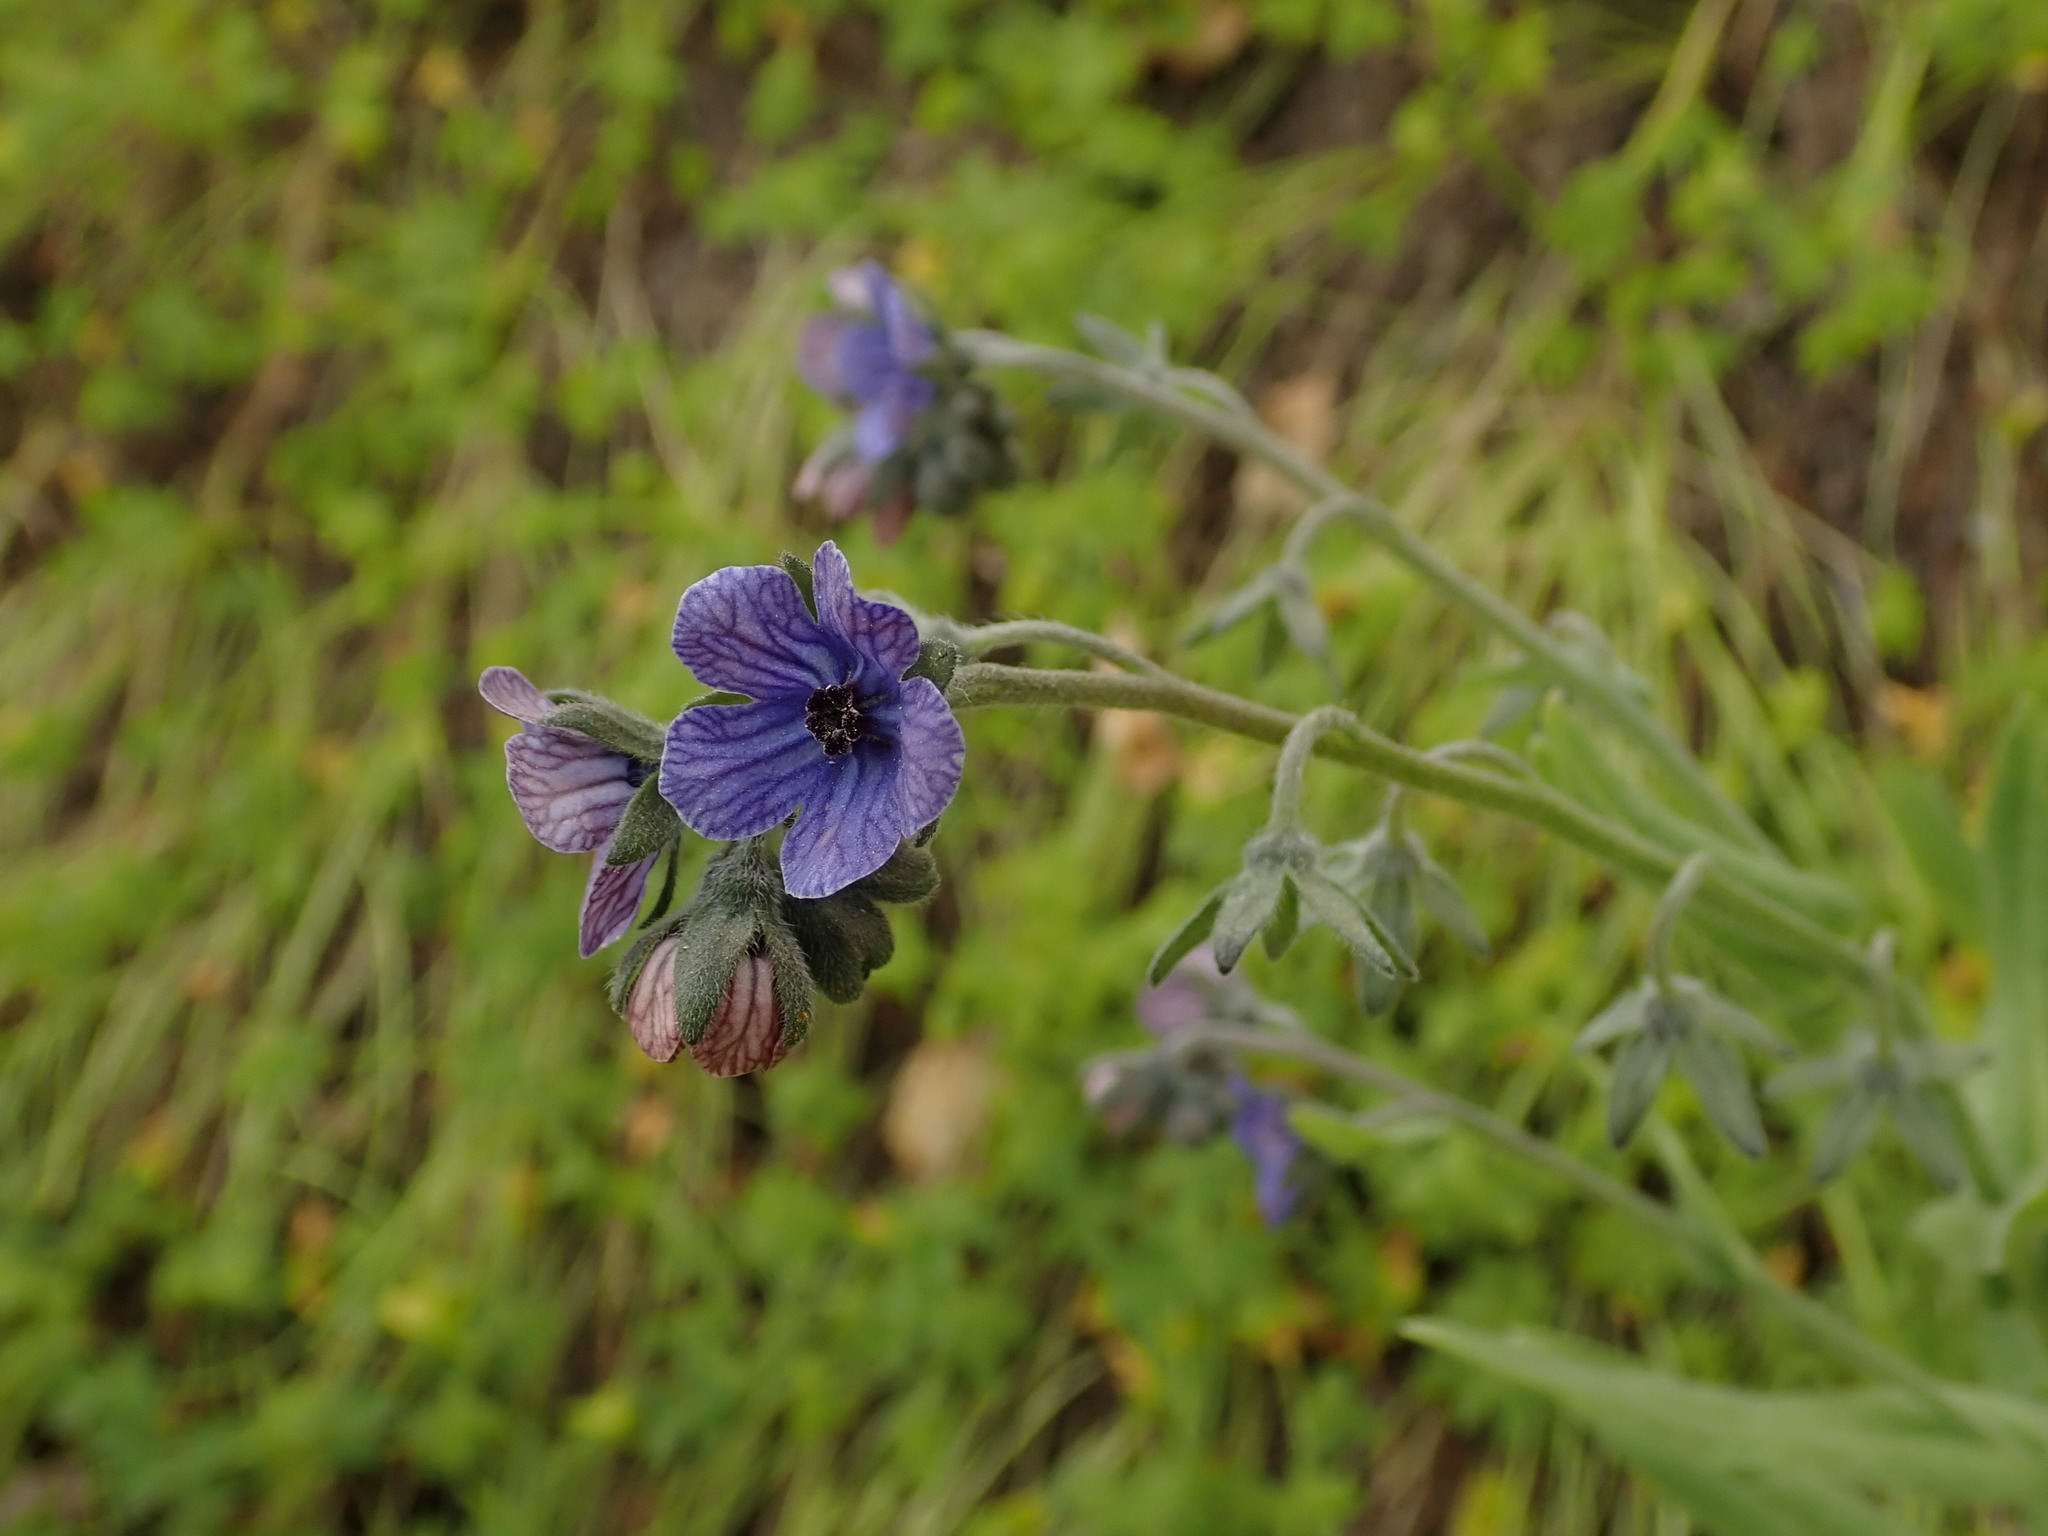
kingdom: Plantae
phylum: Tracheophyta
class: Magnoliopsida
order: Boraginales
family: Boraginaceae
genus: Cynoglossum
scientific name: Cynoglossum creticum
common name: Blue hound's tongue
